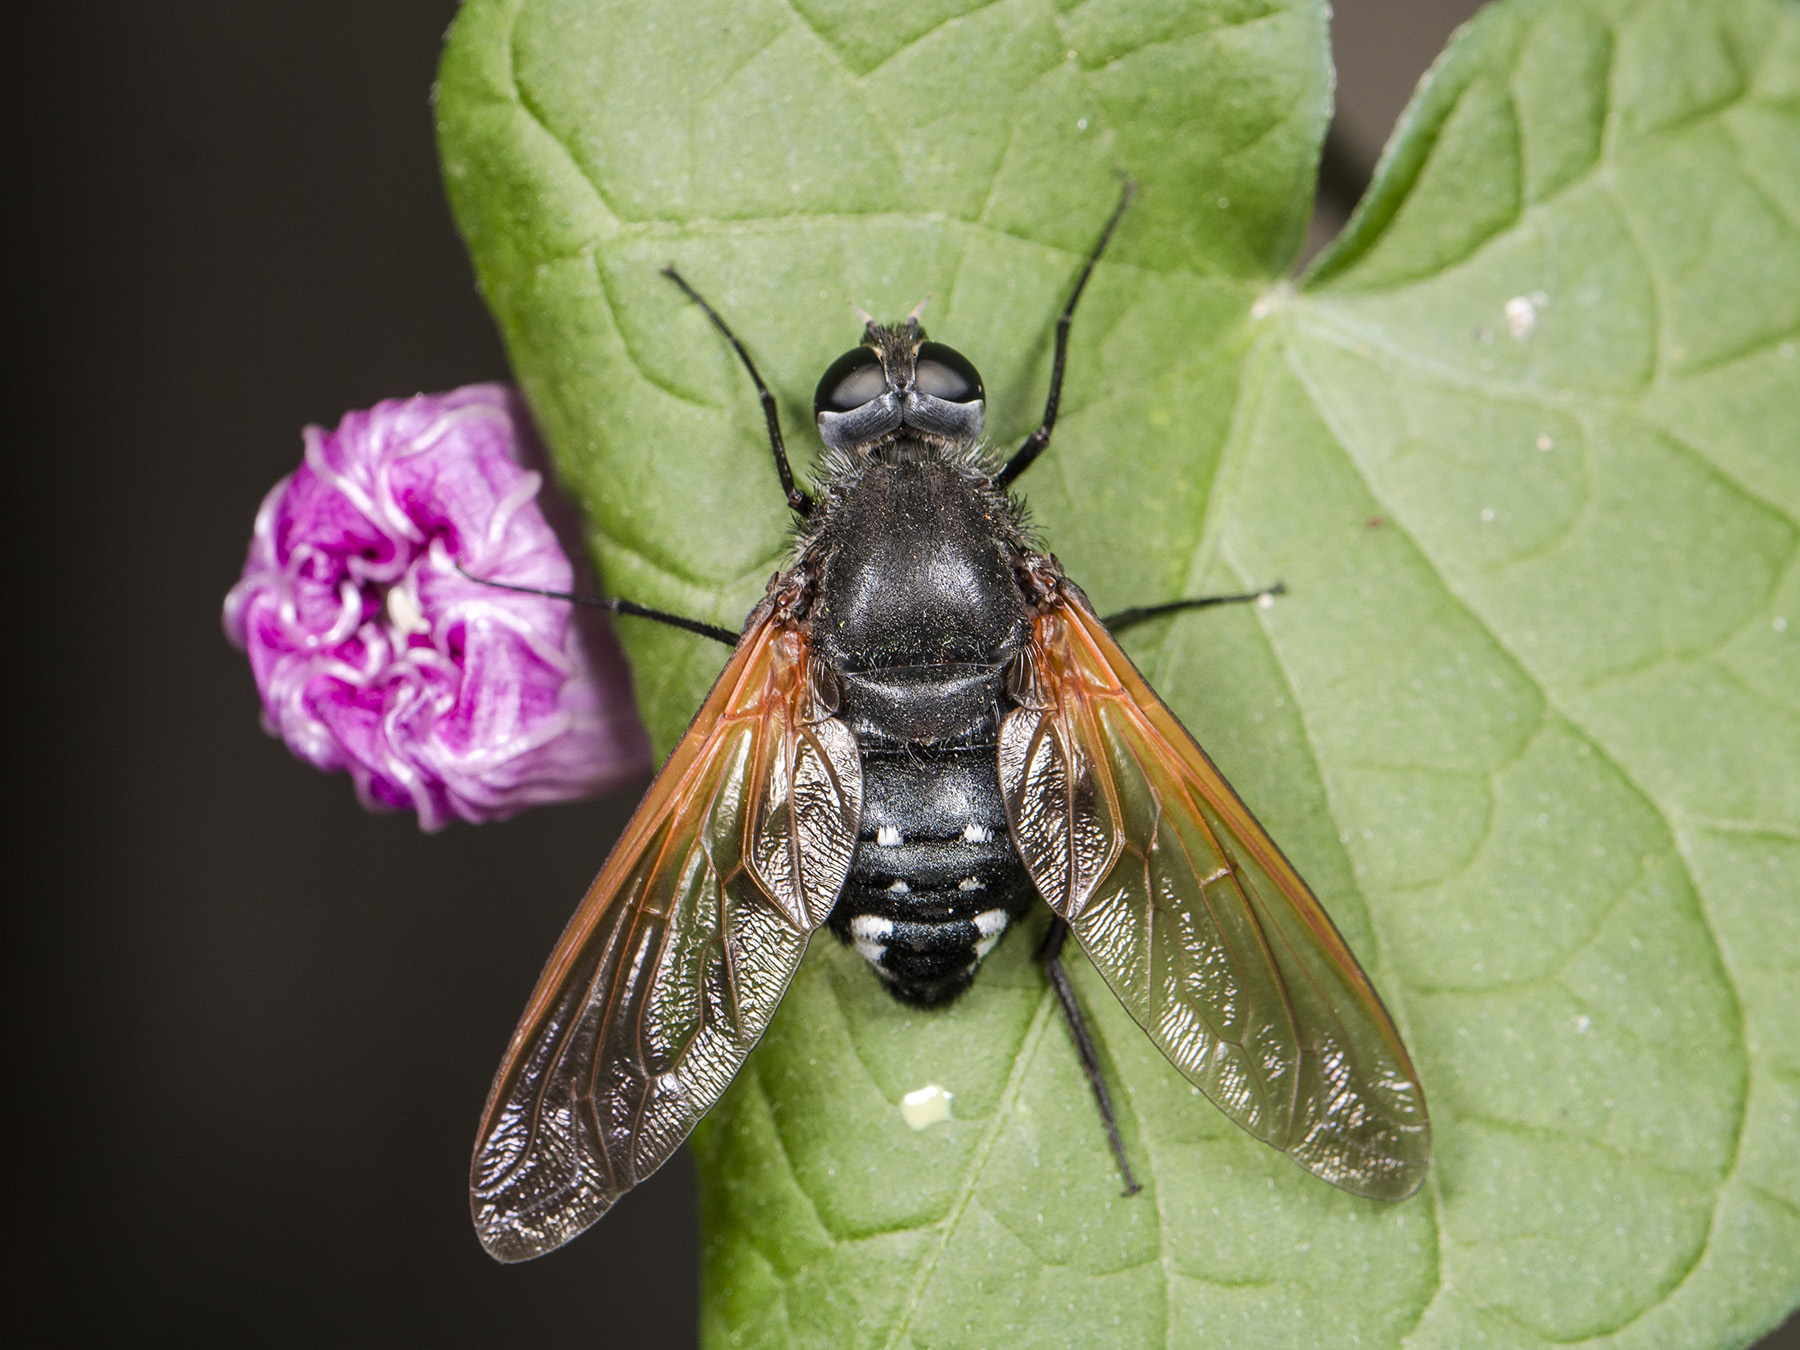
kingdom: Animalia
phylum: Arthropoda
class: Insecta
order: Diptera
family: Bombyliidae
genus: Satyramoeba
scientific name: Satyramoeba hetrusca
